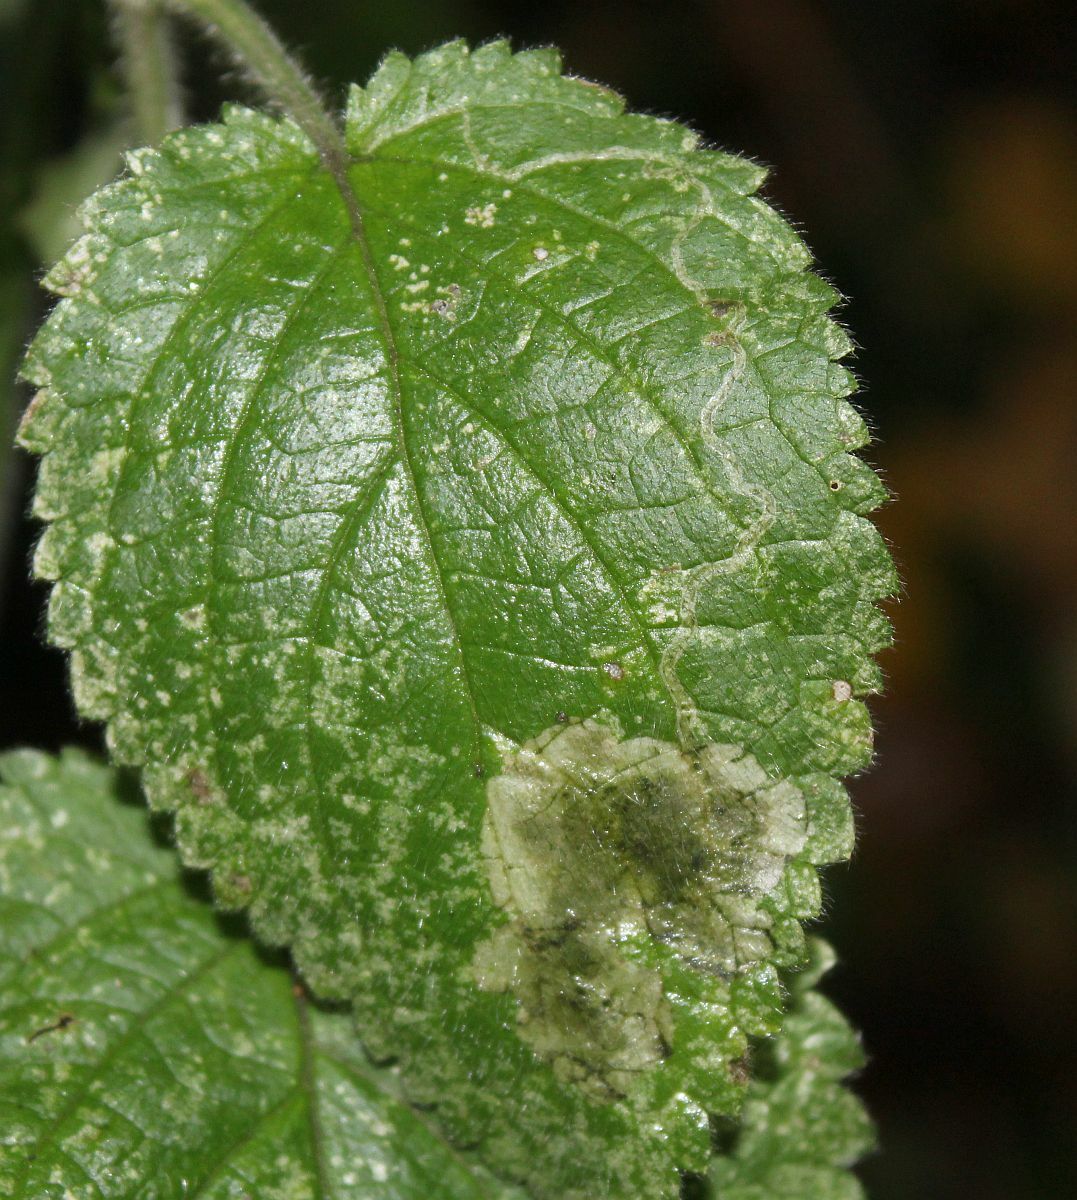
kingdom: Animalia
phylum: Arthropoda
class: Insecta
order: Diptera
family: Agromyzidae
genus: Amauromyza
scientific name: Amauromyza labiatarum
